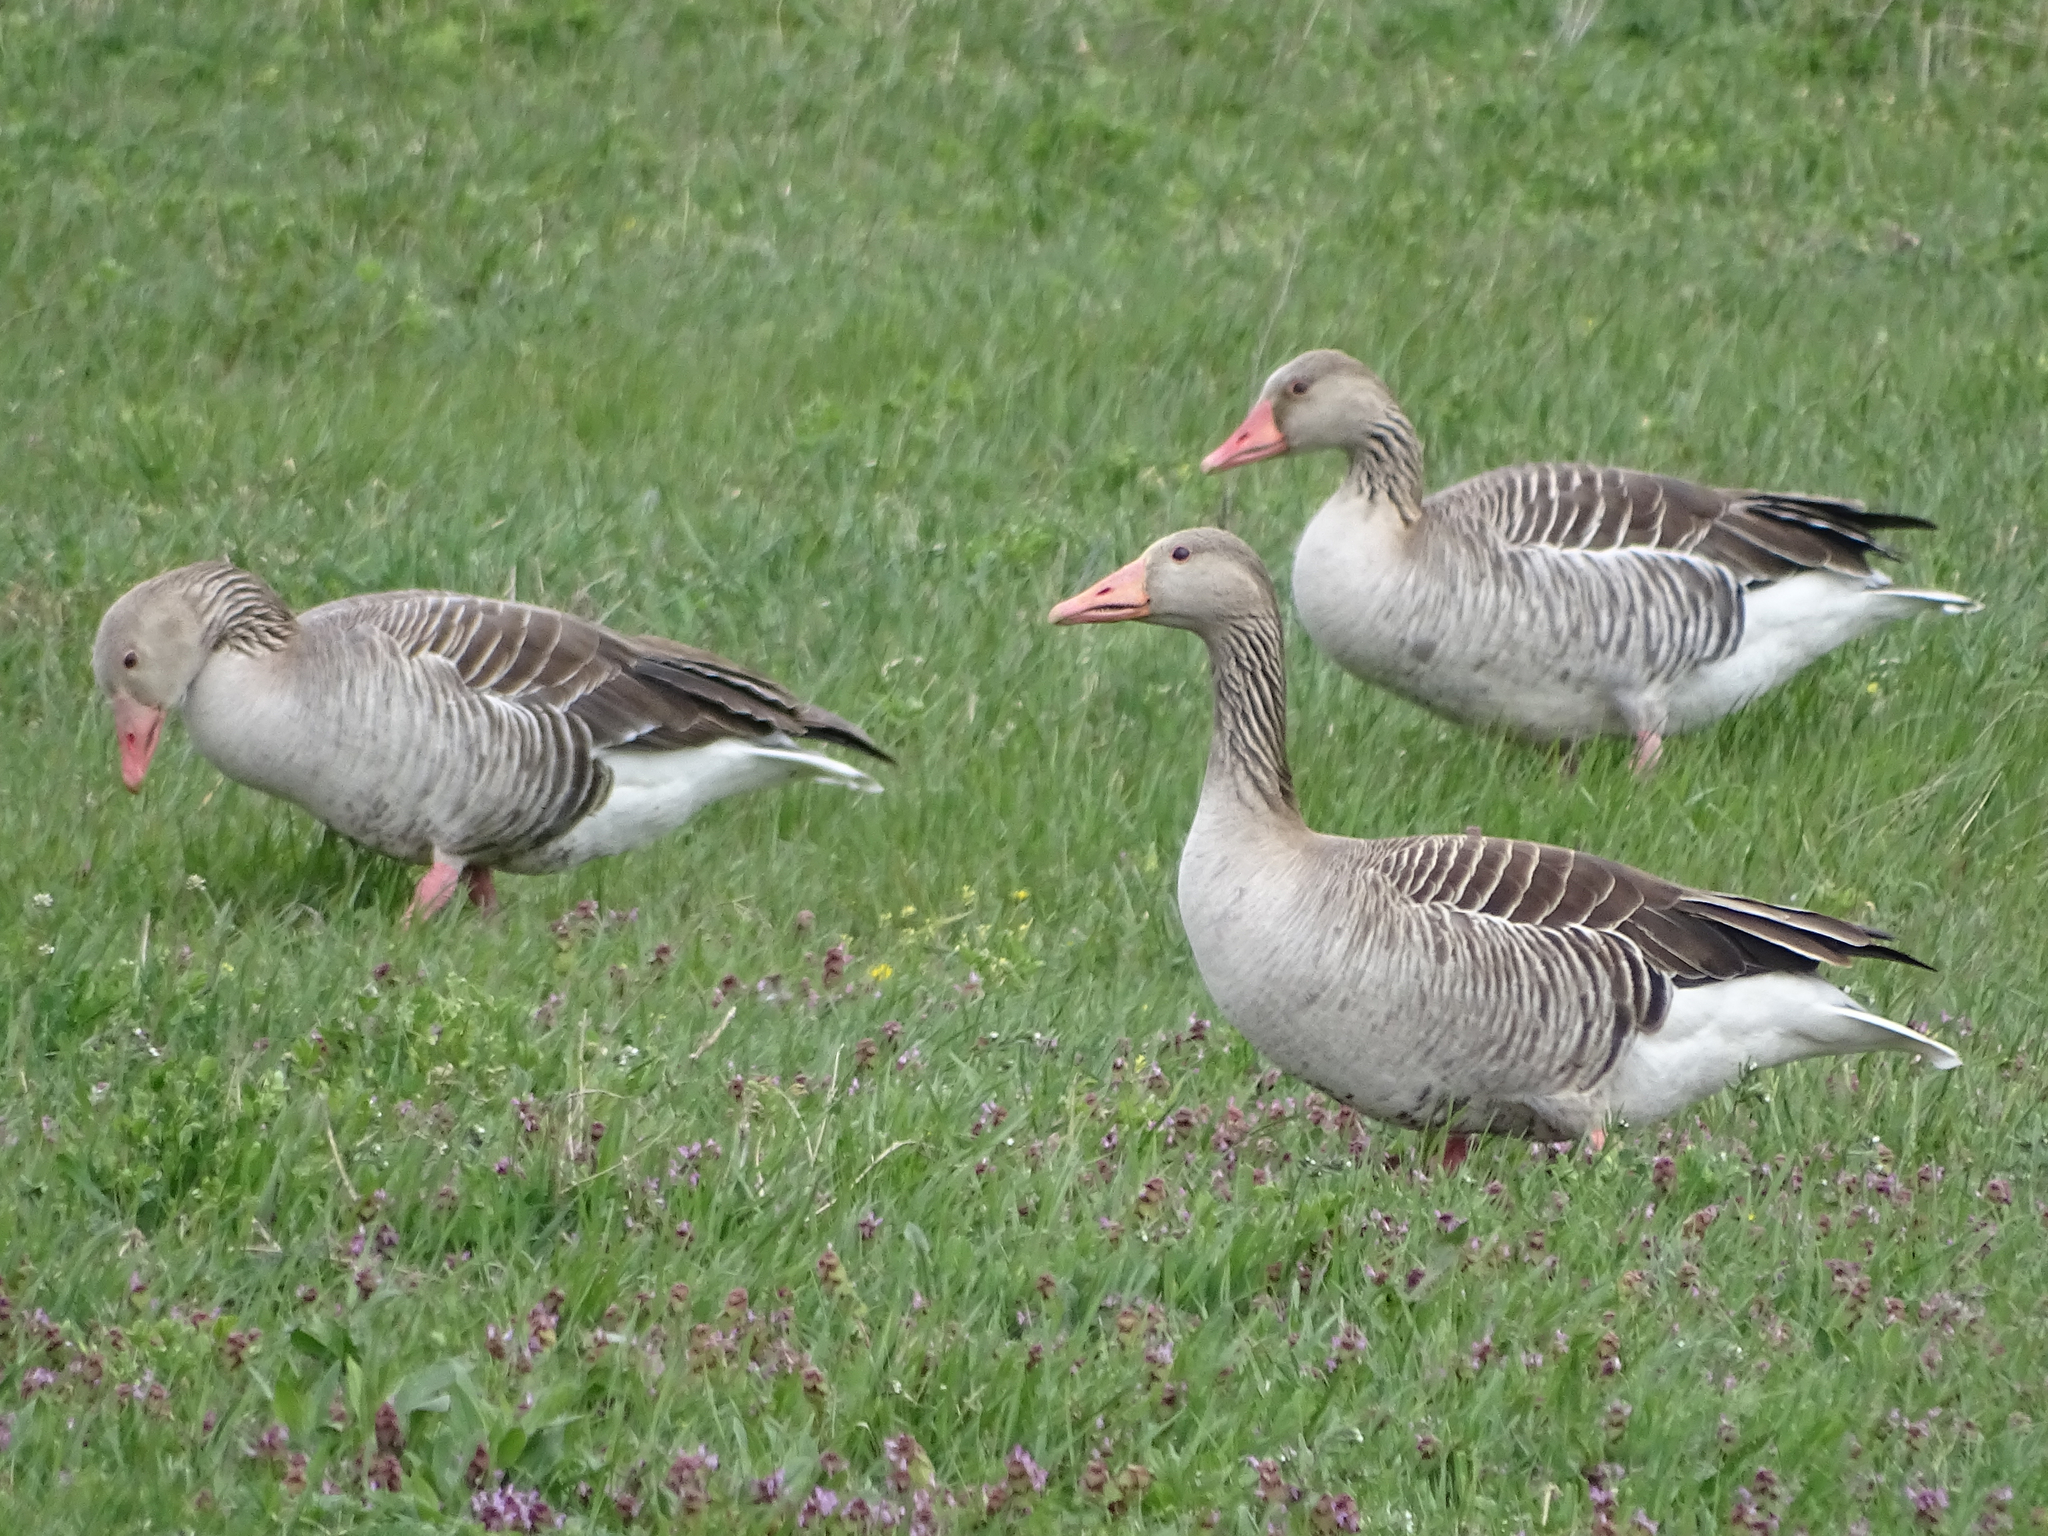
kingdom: Animalia
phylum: Chordata
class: Aves
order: Anseriformes
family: Anatidae
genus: Anser
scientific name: Anser anser
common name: Greylag goose
